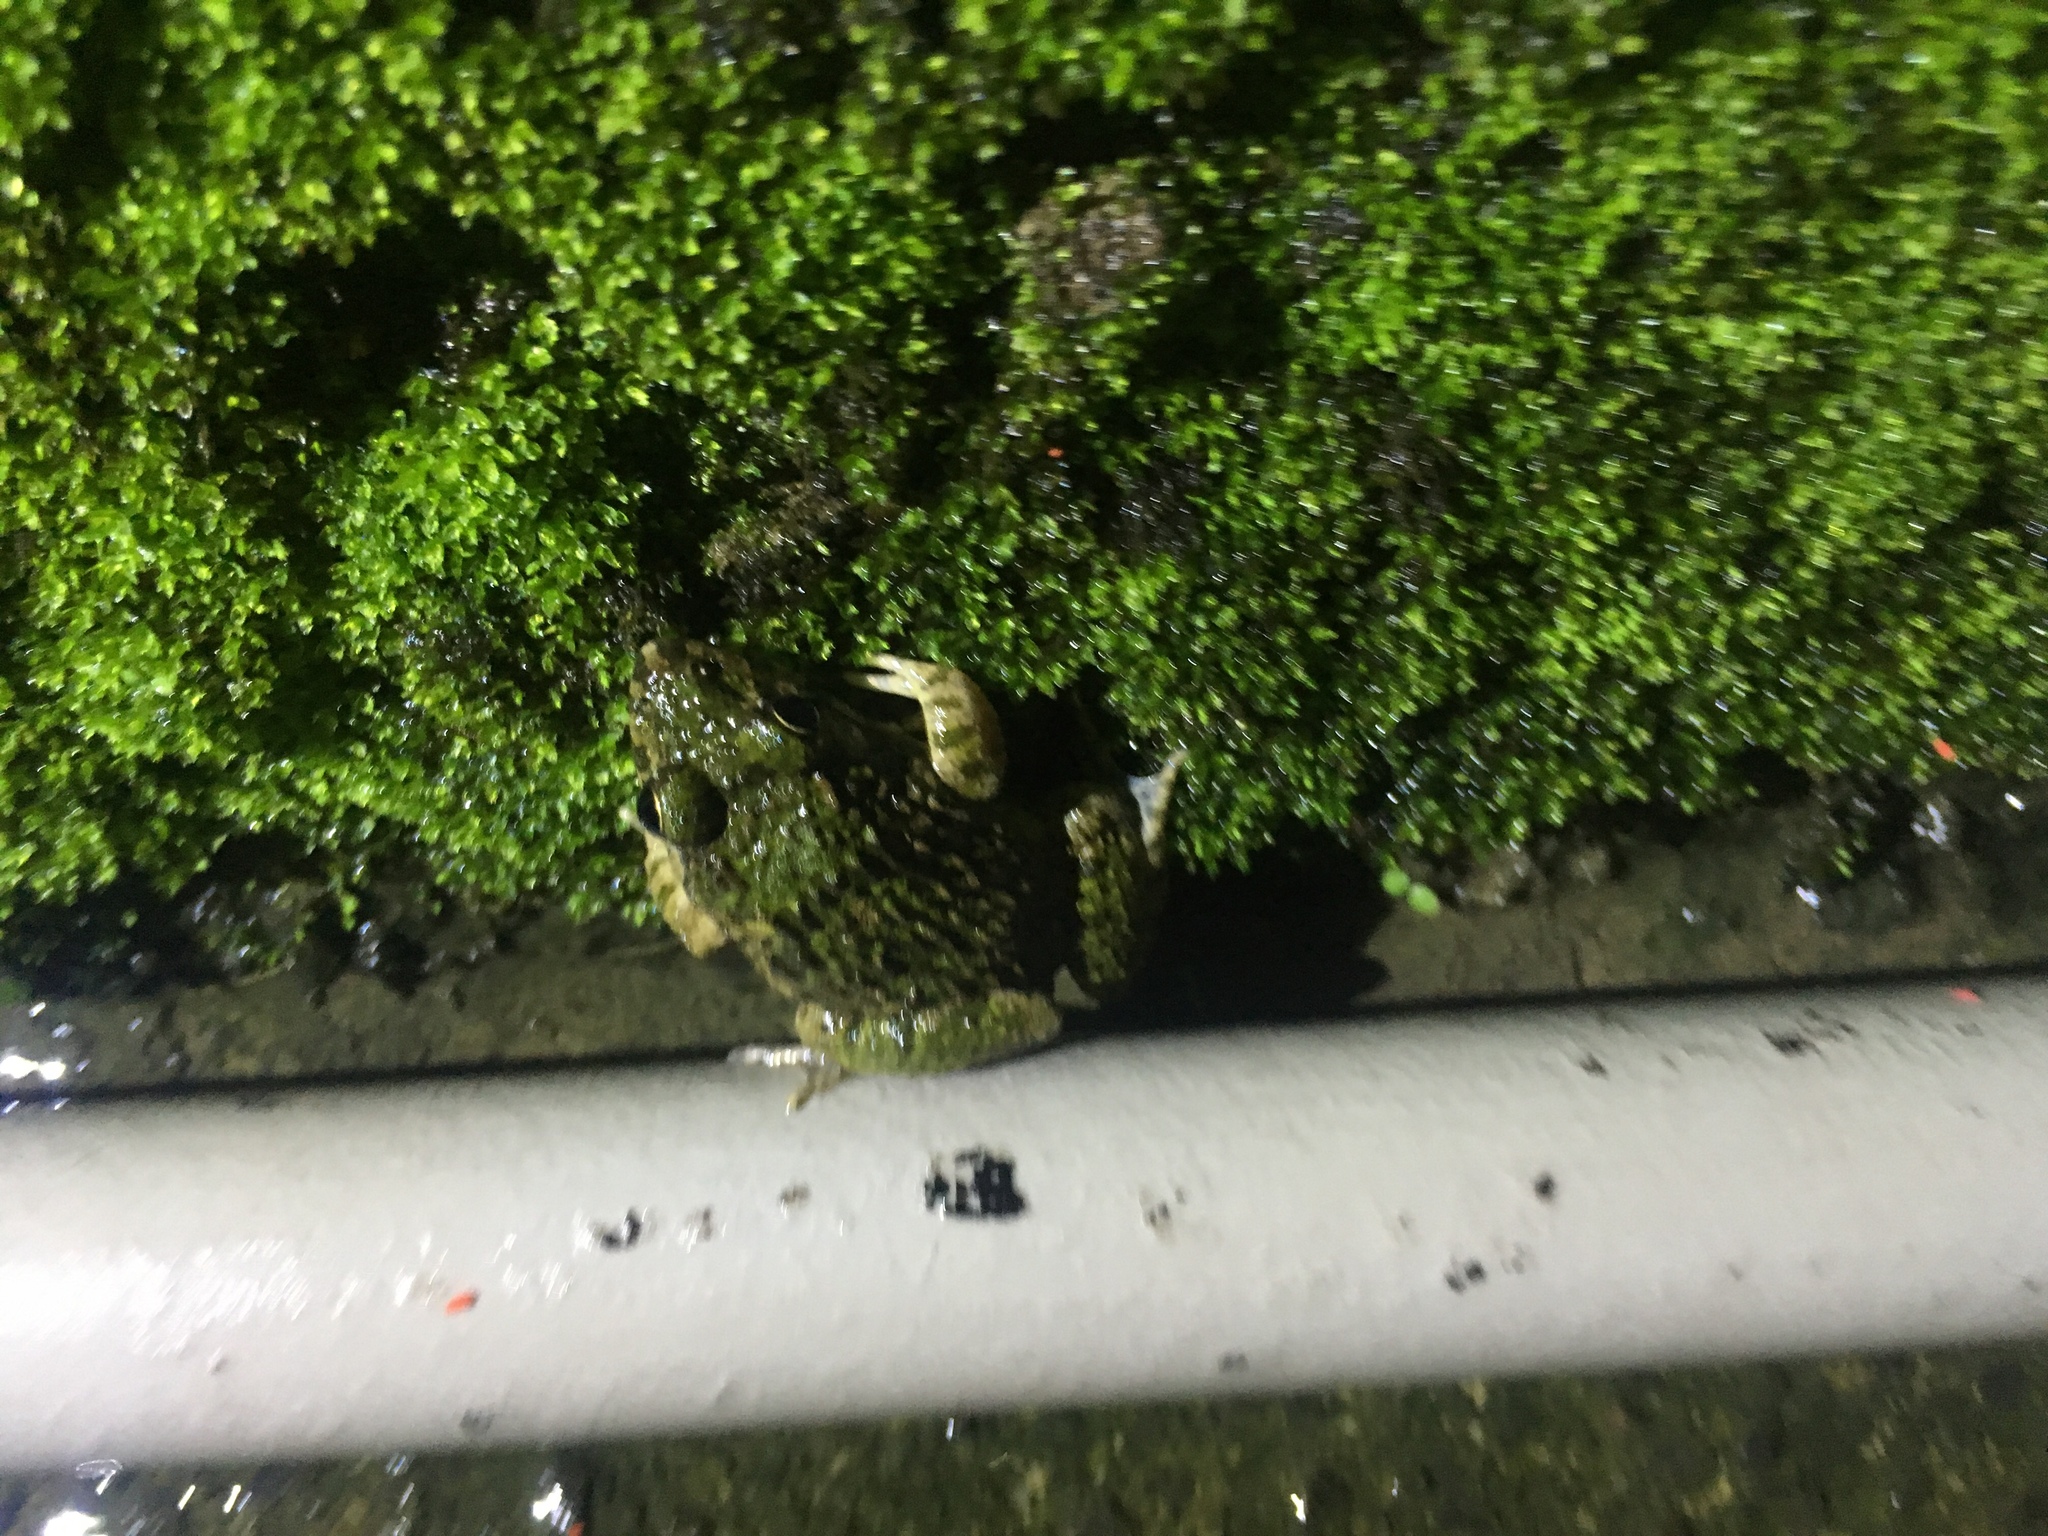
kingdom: Animalia
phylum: Chordata
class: Amphibia
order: Anura
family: Dicroglossidae
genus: Fejervarya
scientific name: Fejervarya limnocharis
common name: Asian grass frog/common pond frog/field frog/grass frog/indian rice frog
